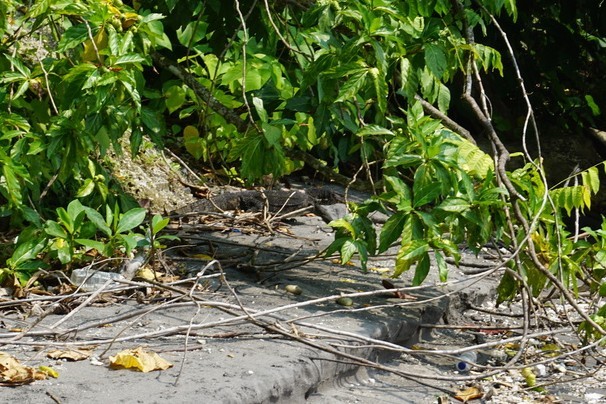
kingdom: Animalia
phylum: Chordata
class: Squamata
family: Varanidae
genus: Varanus
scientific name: Varanus salvator
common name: Common water monitor
